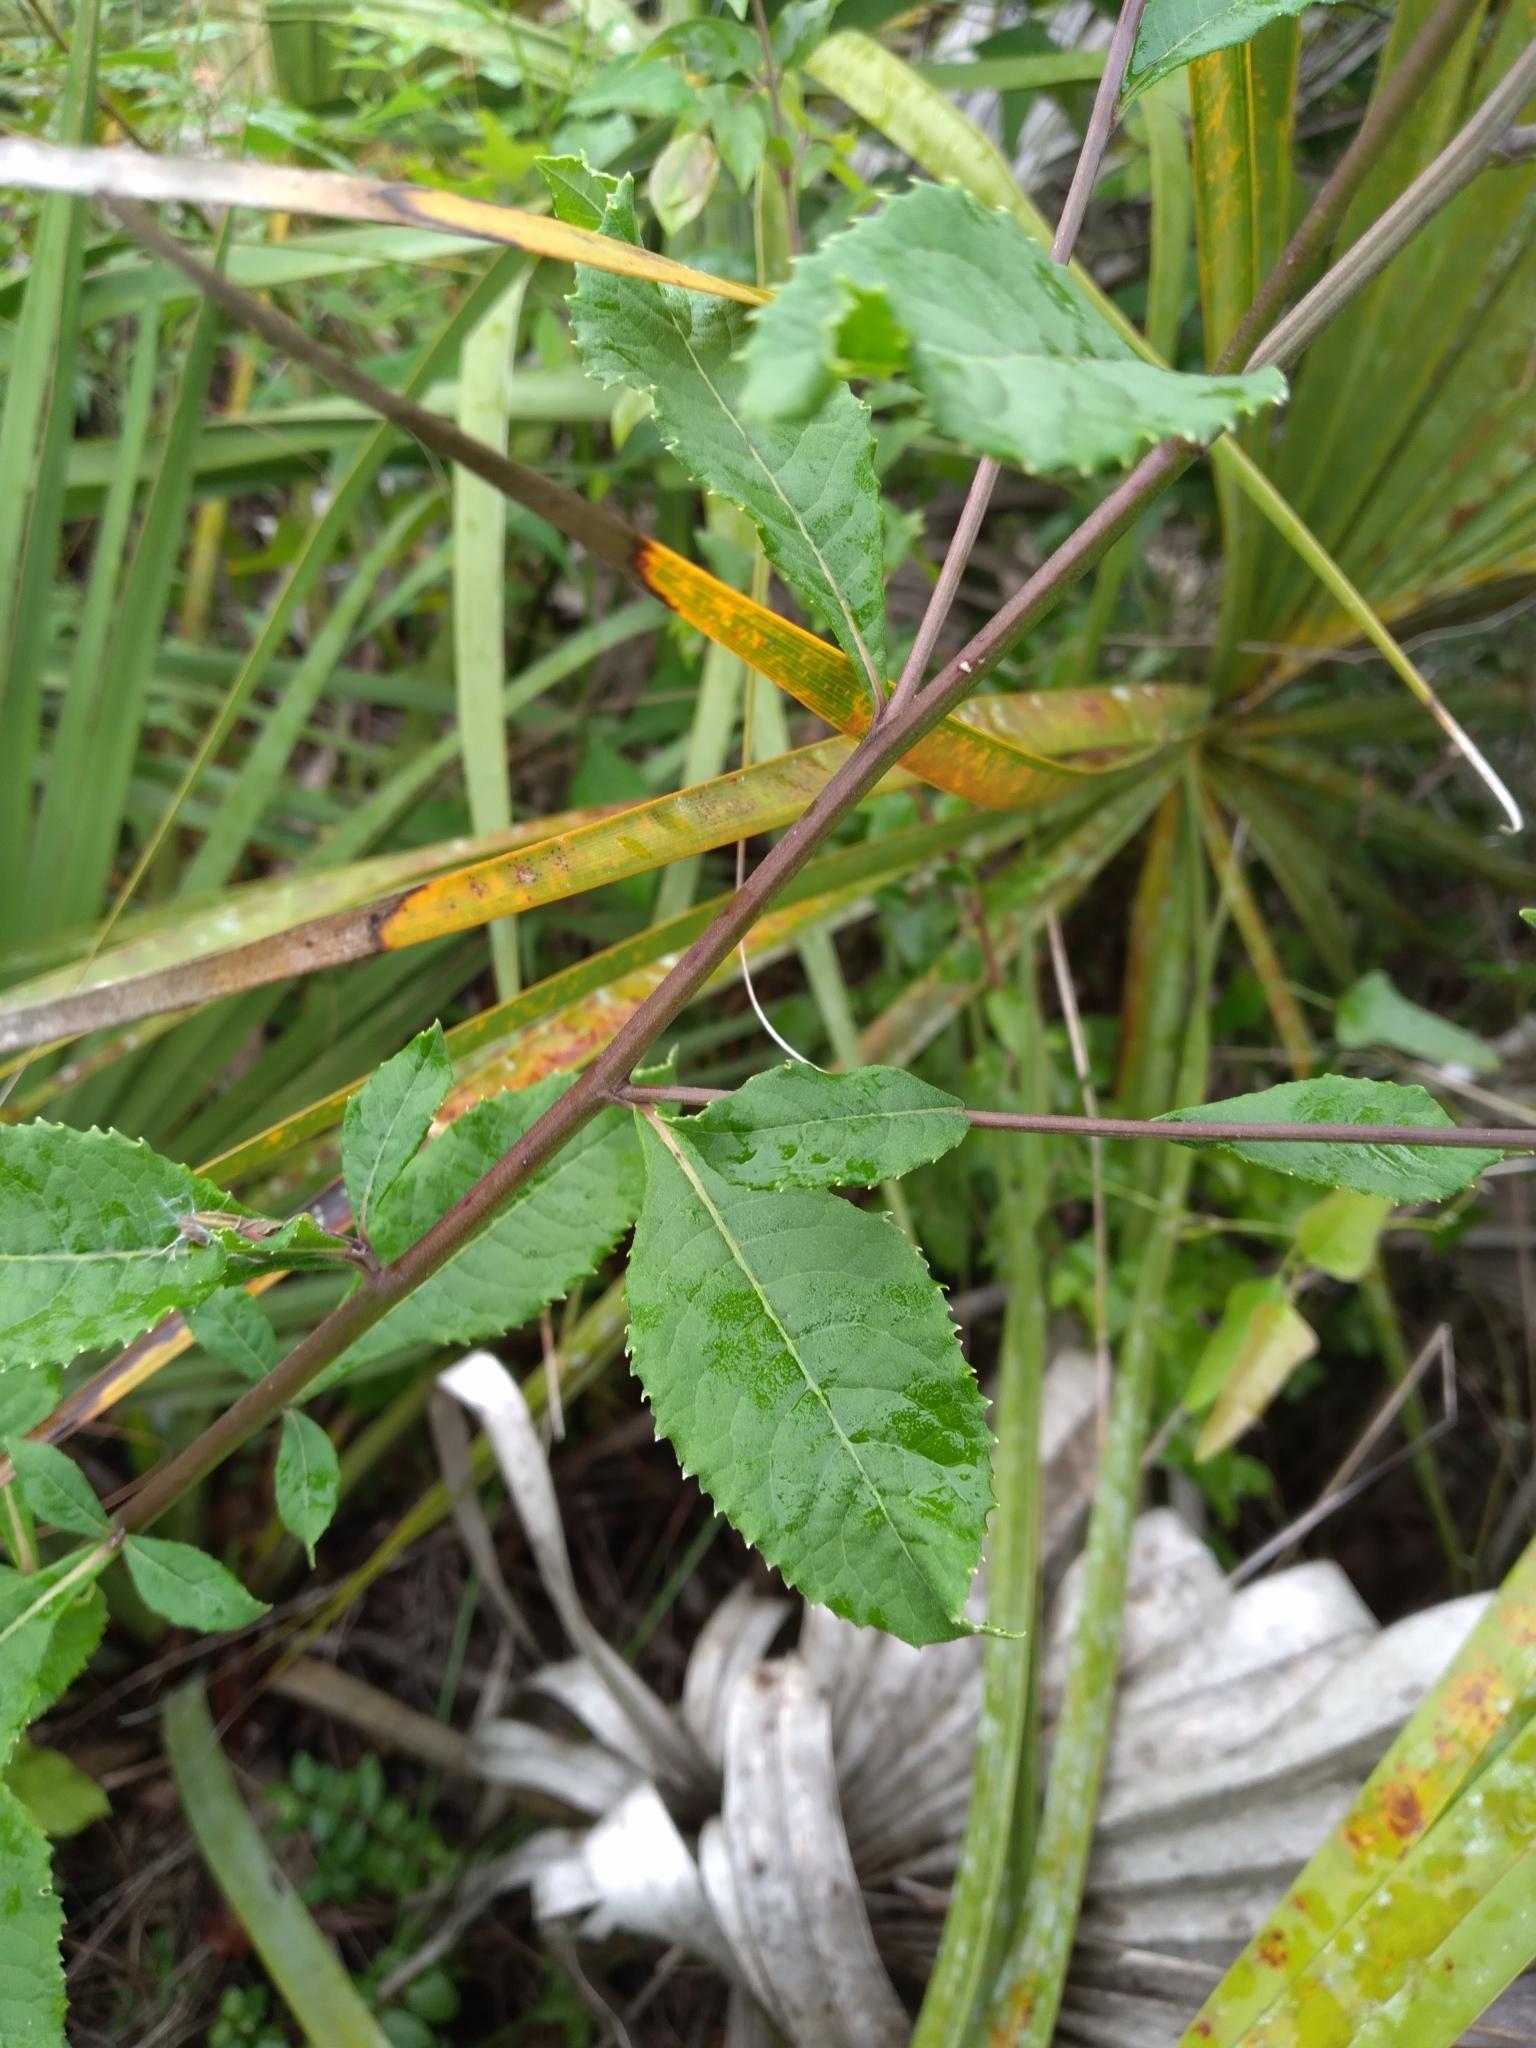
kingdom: Plantae
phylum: Tracheophyta
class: Magnoliopsida
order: Asterales
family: Asteraceae
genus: Vernonia
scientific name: Vernonia gigantea
